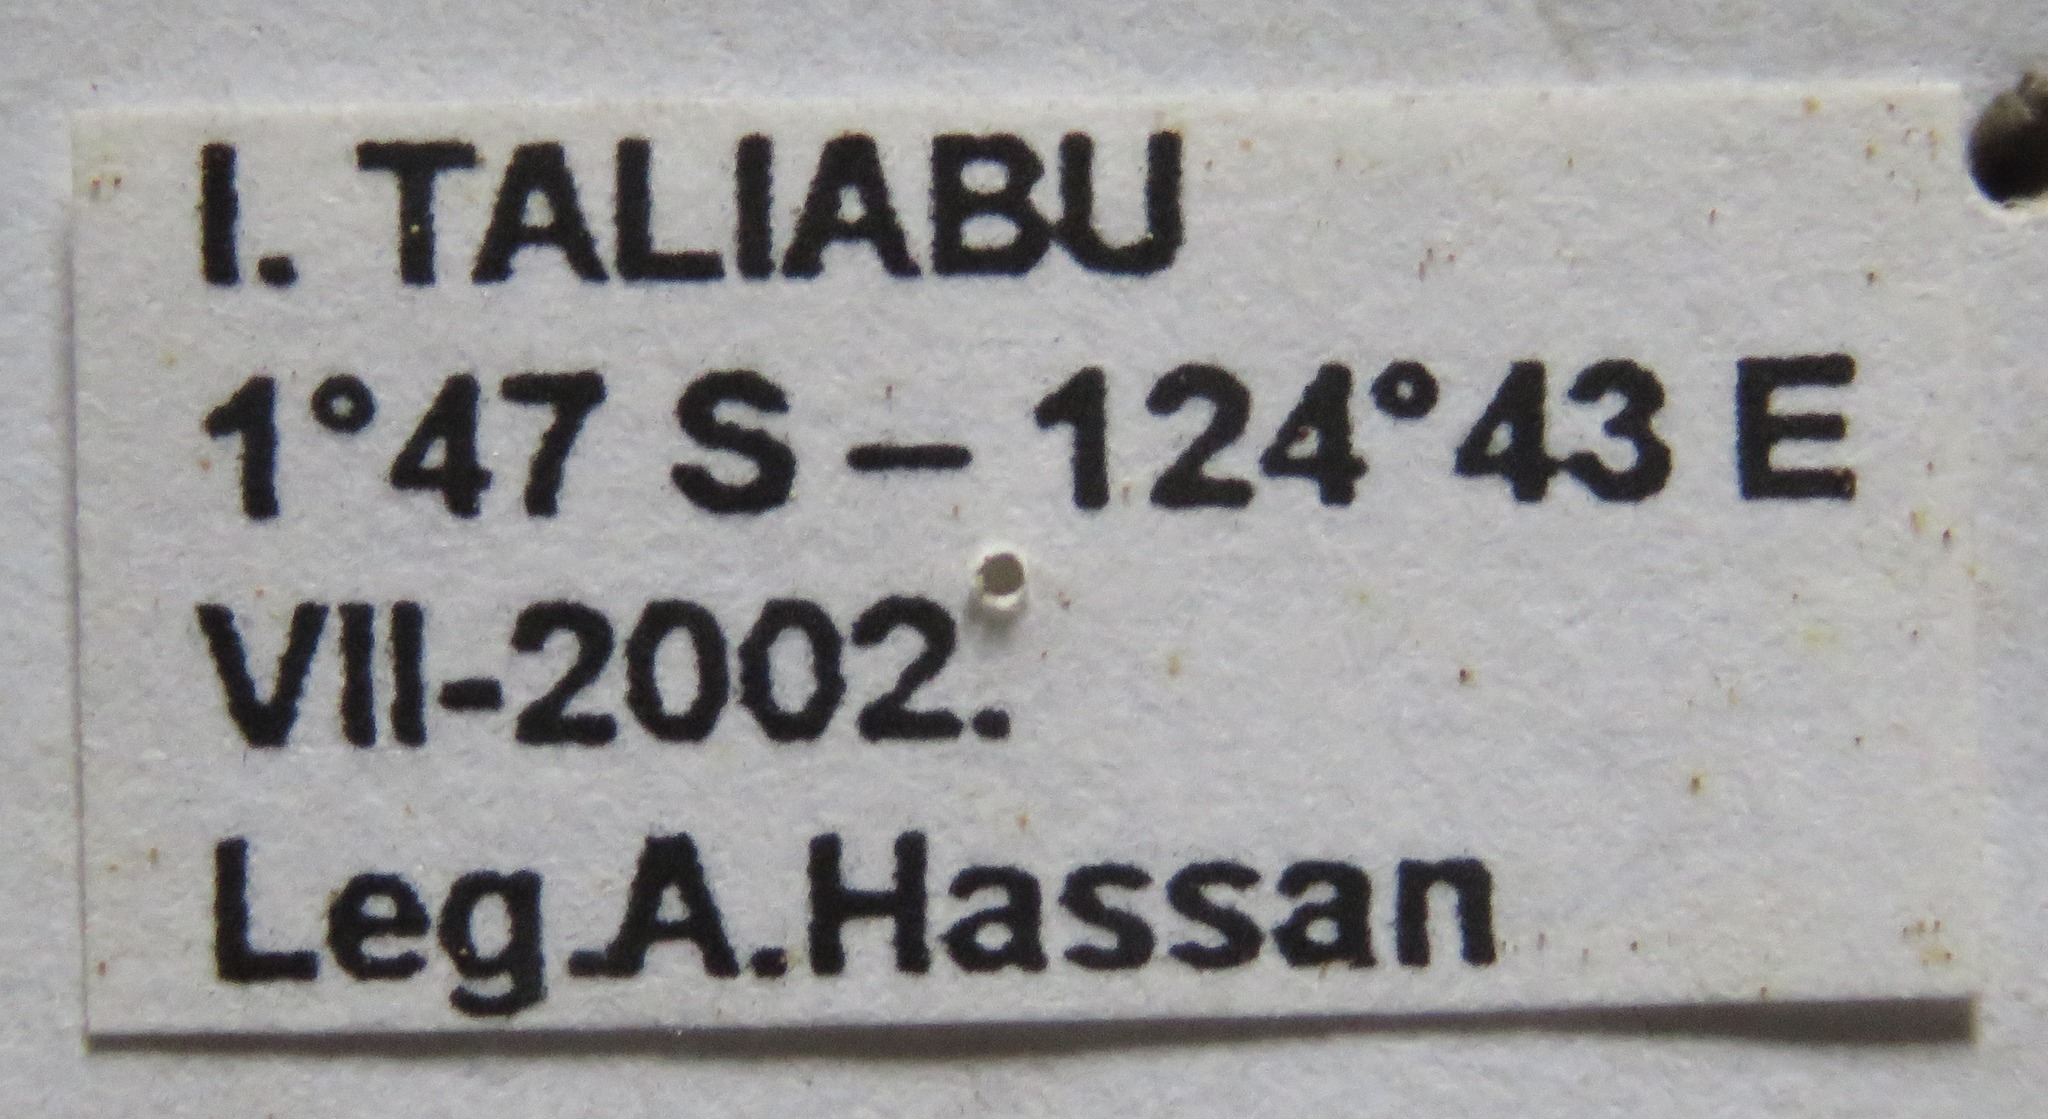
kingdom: Animalia
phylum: Arthropoda
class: Insecta
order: Coleoptera
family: Lucanidae
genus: Prosopocoilus
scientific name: Prosopocoilus bruijni
